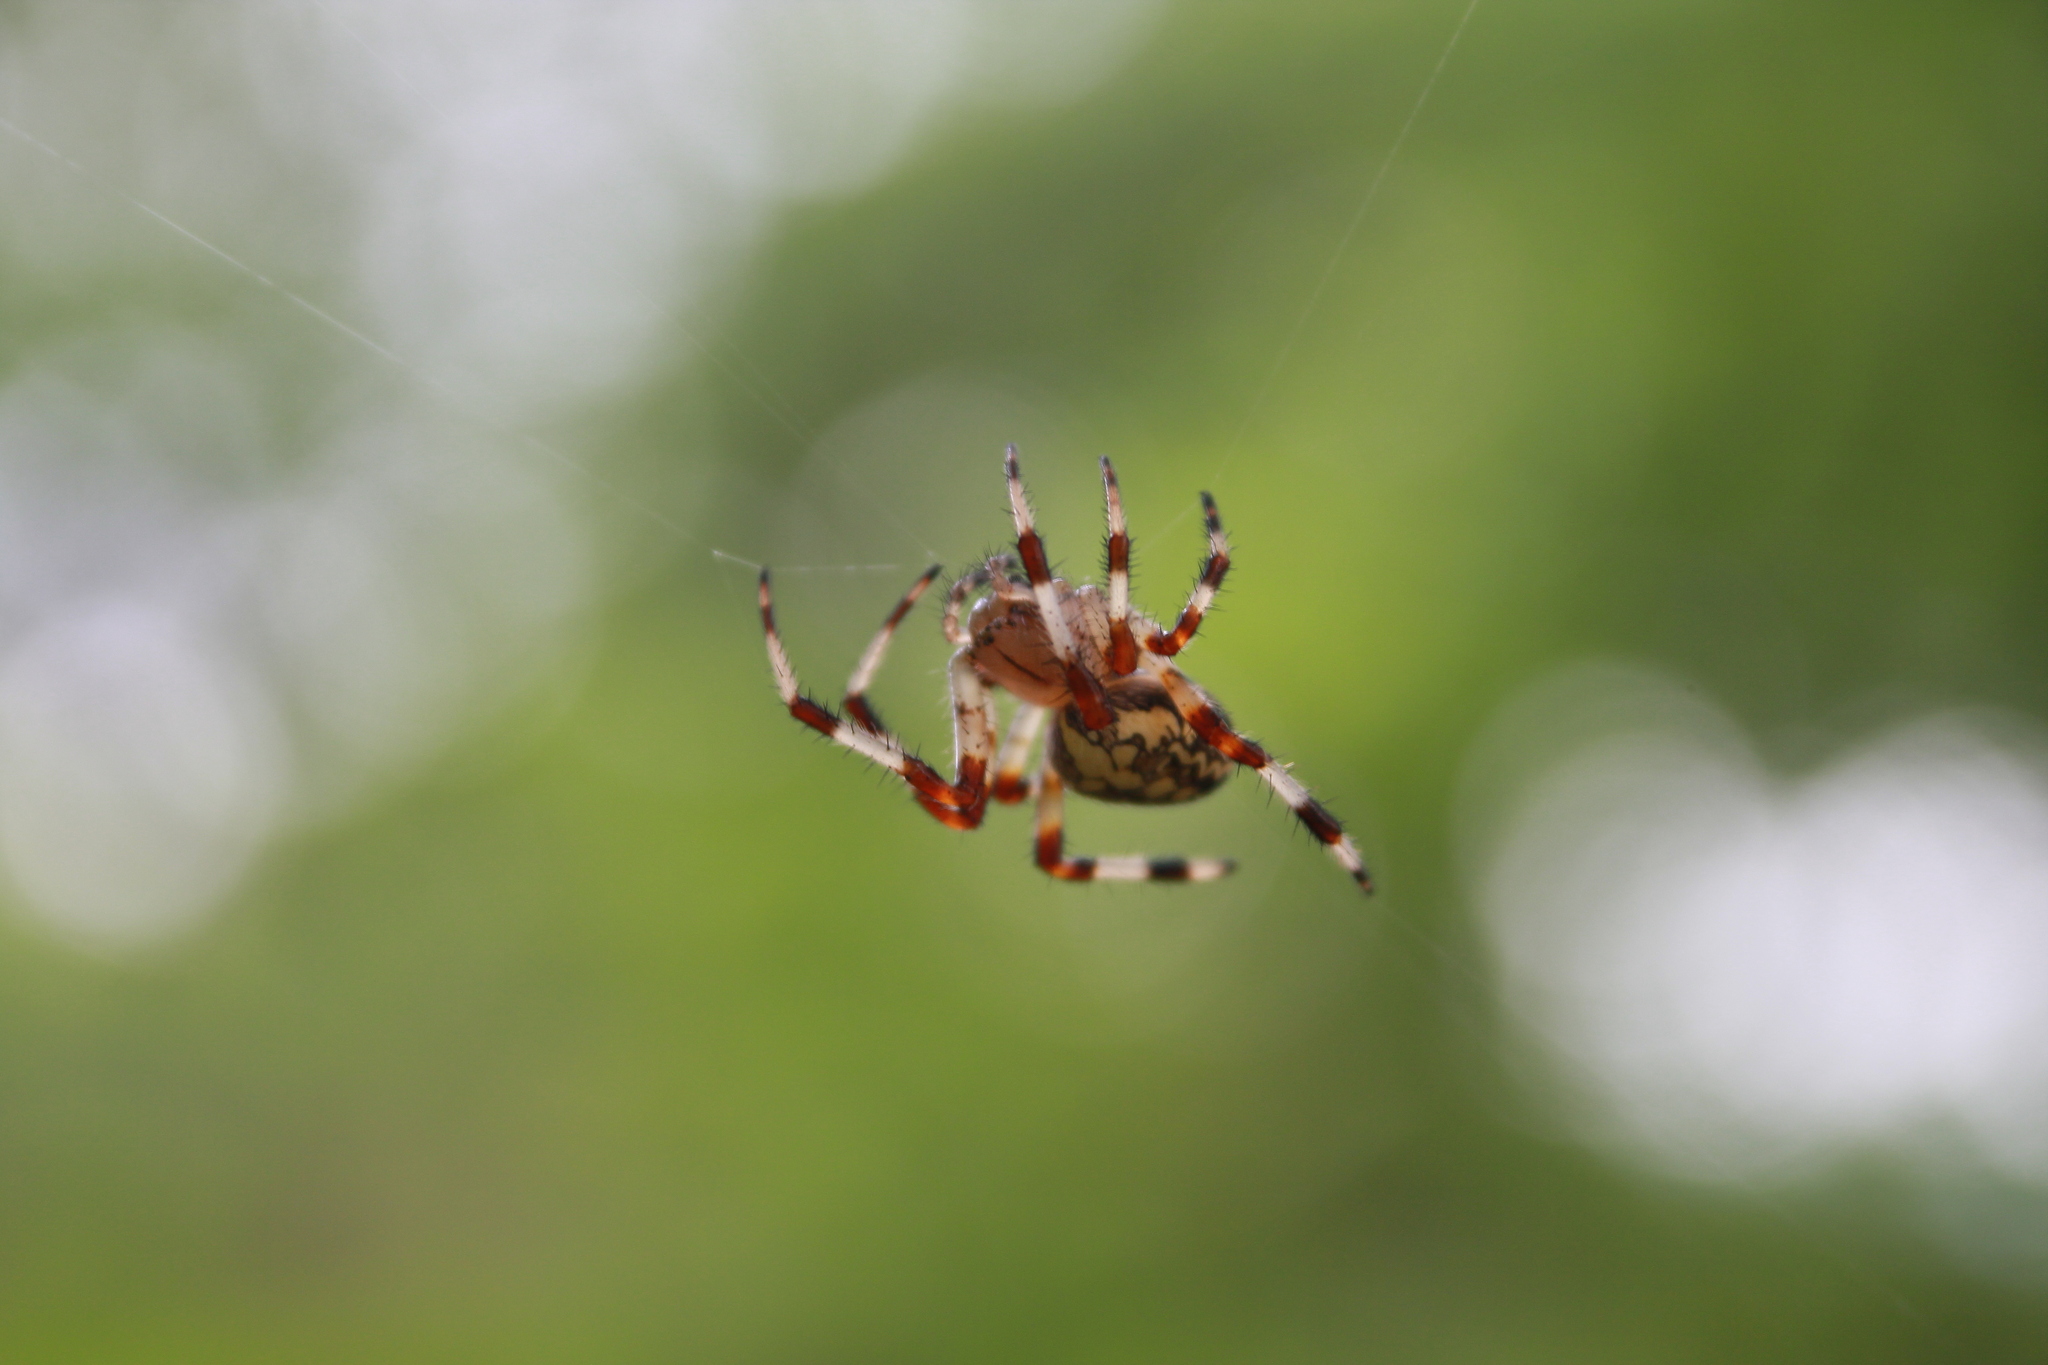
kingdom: Animalia
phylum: Arthropoda
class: Arachnida
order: Araneae
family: Araneidae
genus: Araneus
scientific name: Araneus marmoreus
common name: Marbled orbweaver
